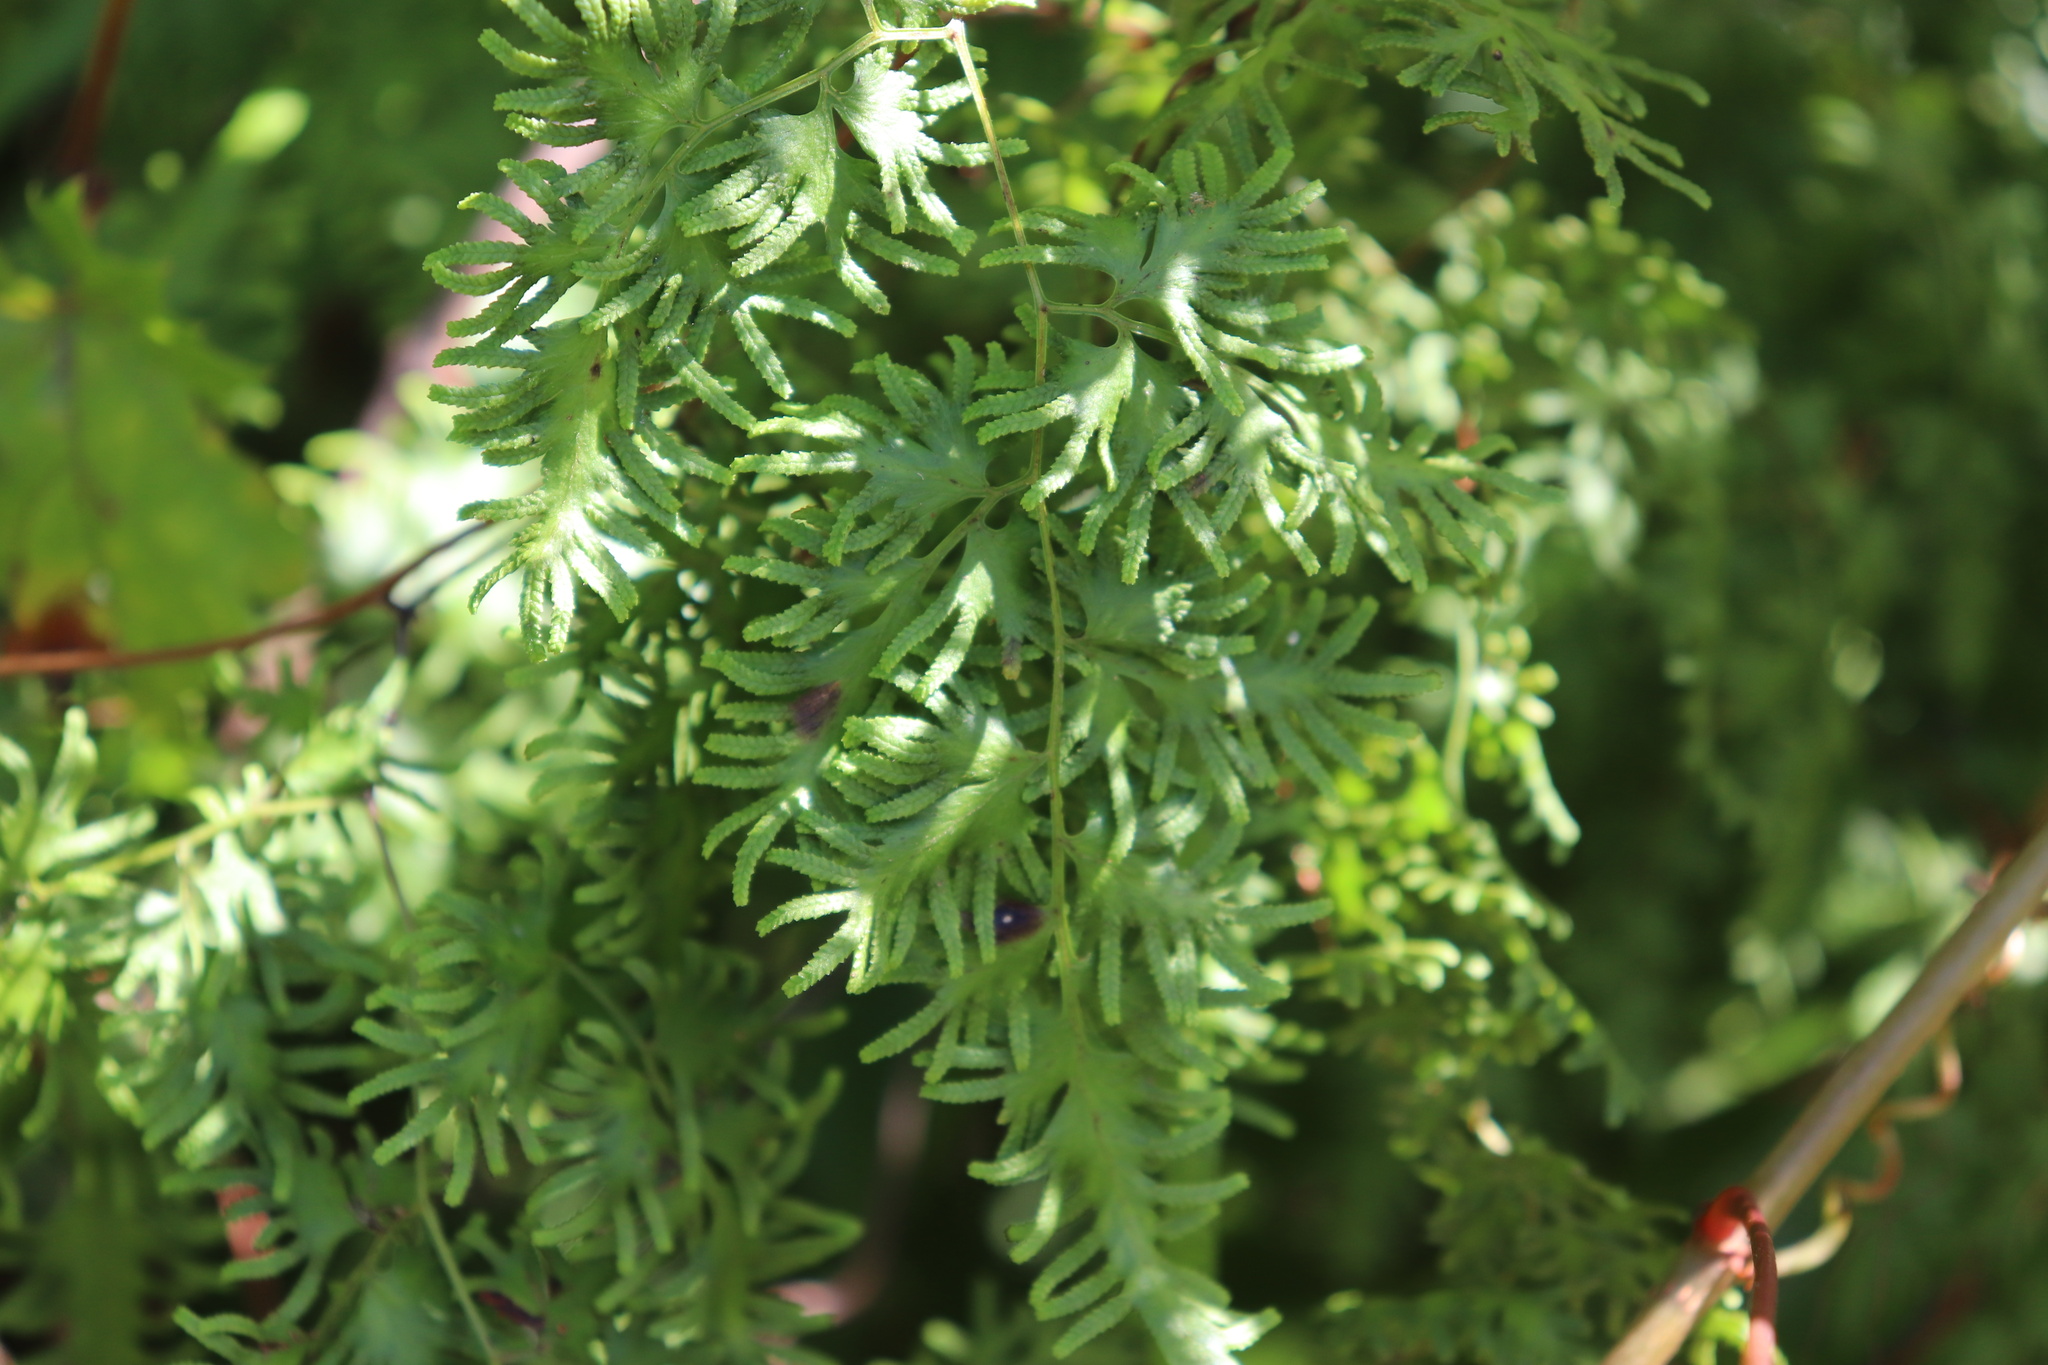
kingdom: Plantae
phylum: Tracheophyta
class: Polypodiopsida
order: Schizaeales
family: Lygodiaceae
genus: Lygodium
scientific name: Lygodium japonicum
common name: Japanese climbing fern
